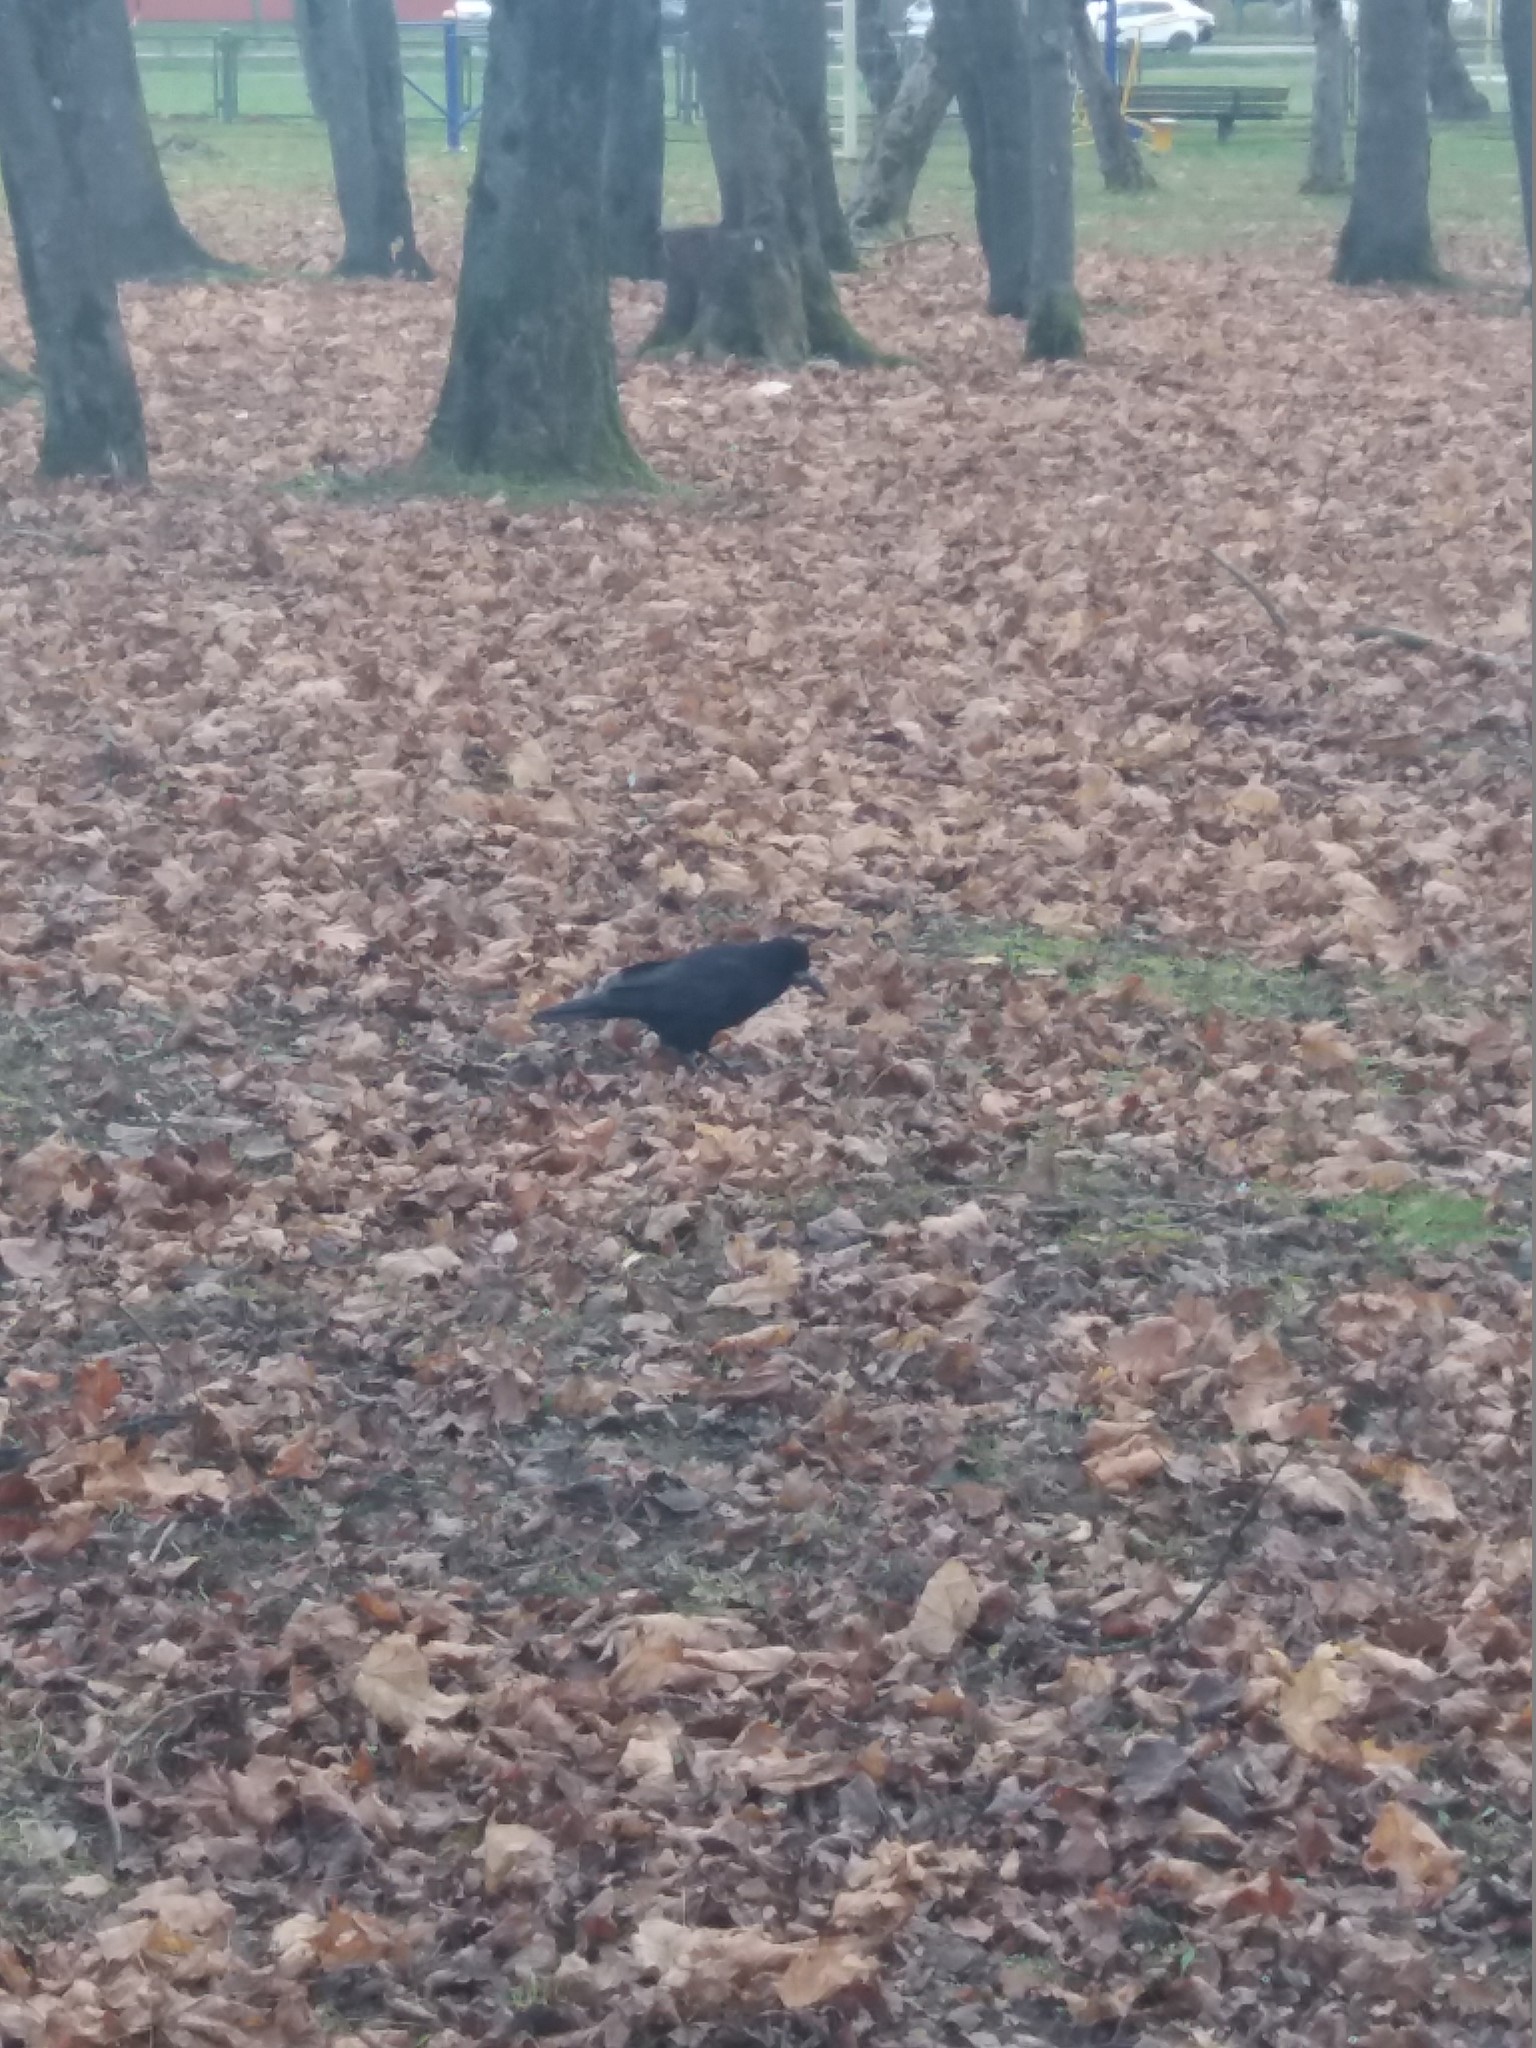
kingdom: Animalia
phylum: Chordata
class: Aves
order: Passeriformes
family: Corvidae
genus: Corvus
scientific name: Corvus frugilegus
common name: Rook
